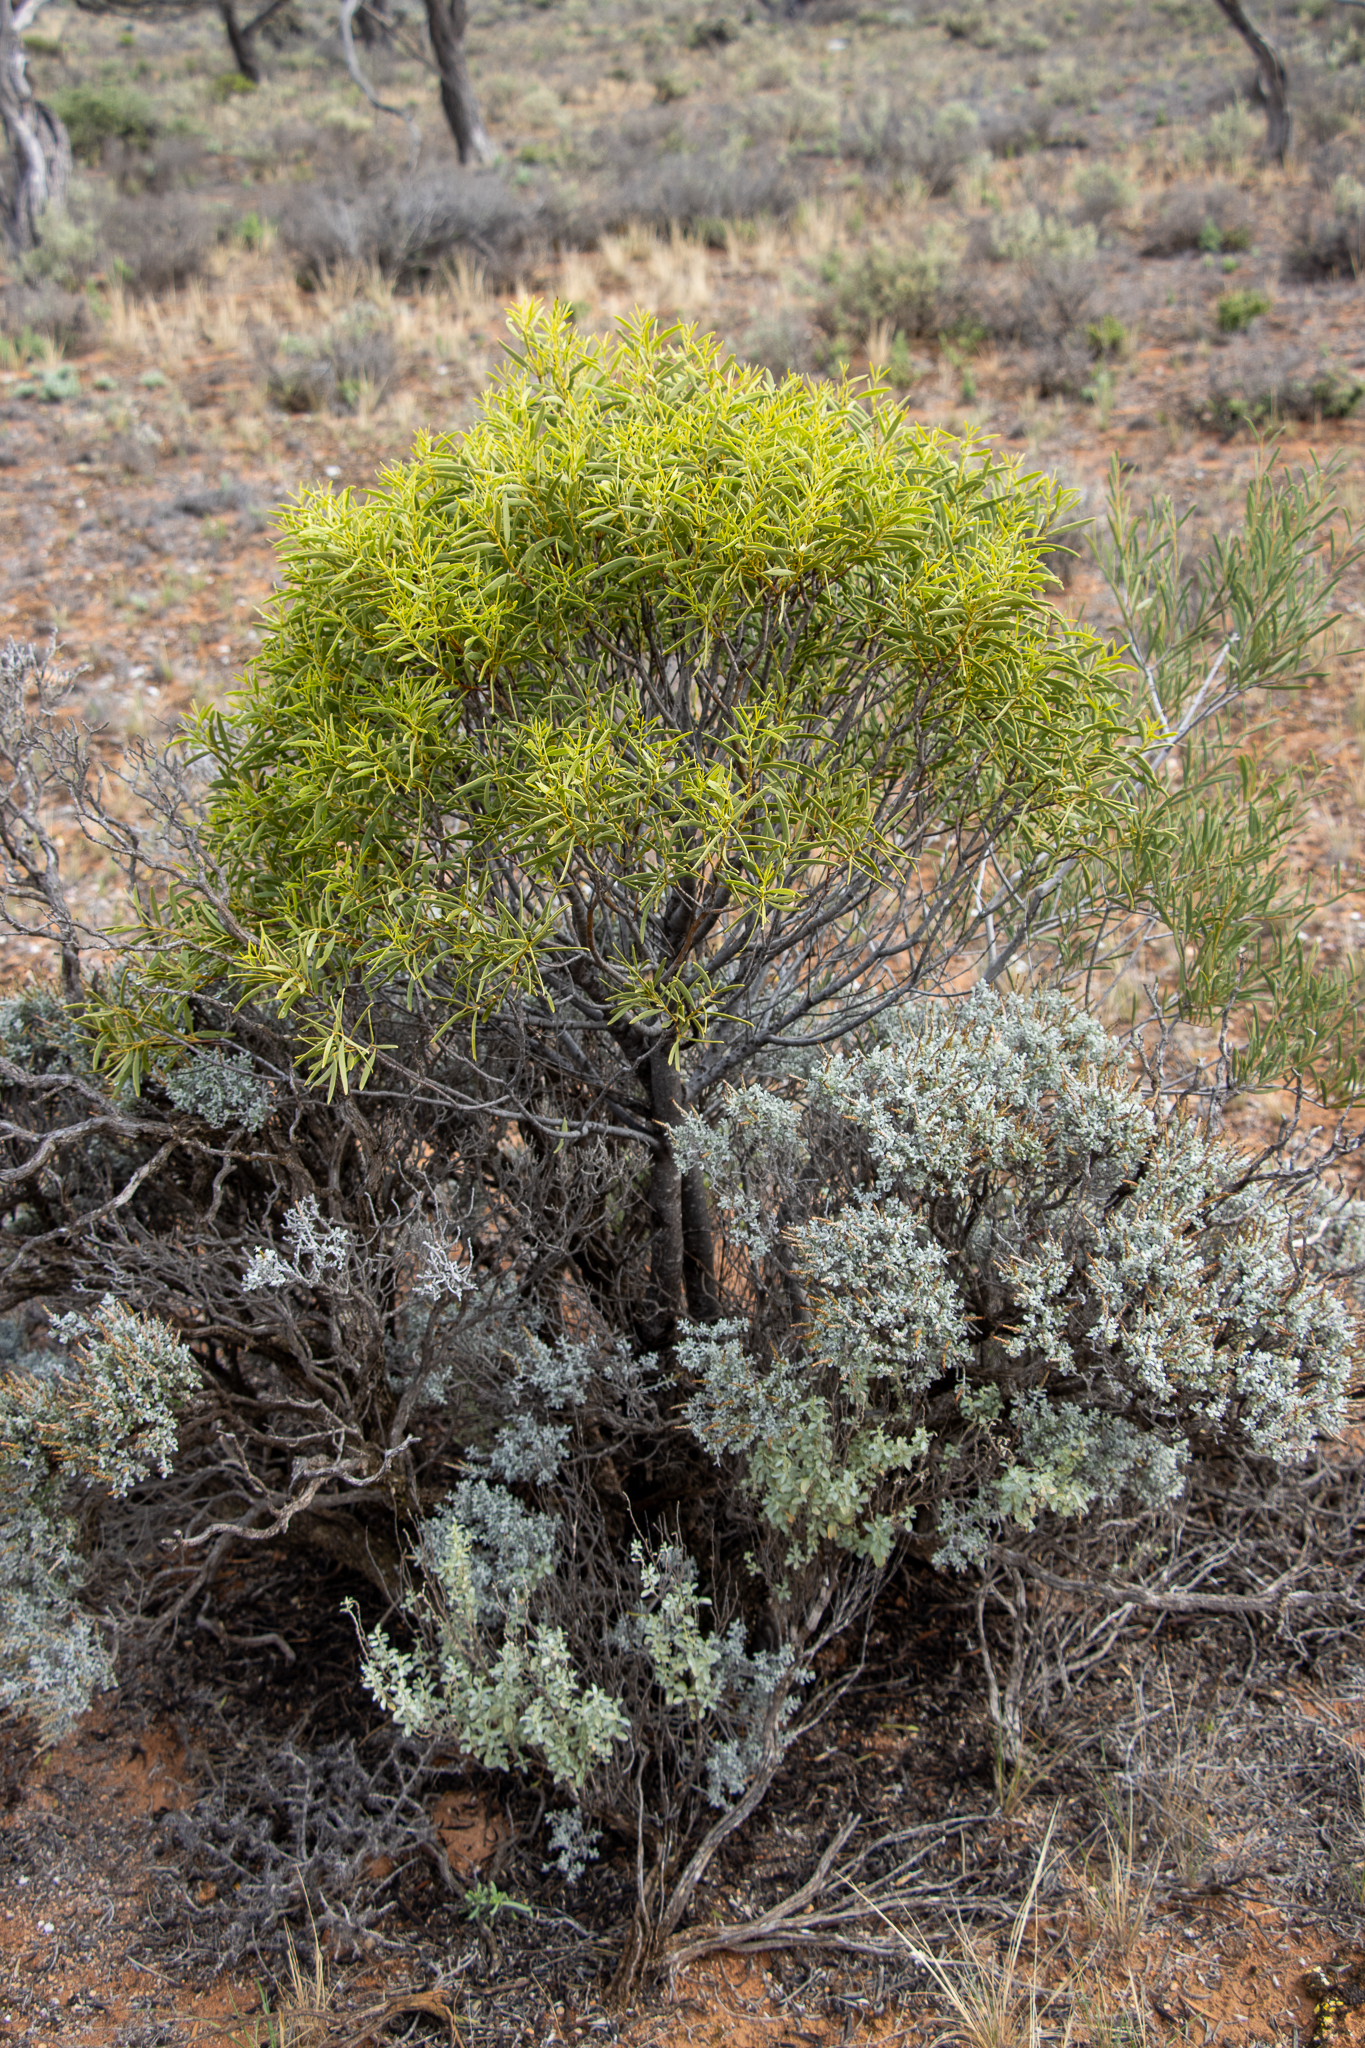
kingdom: Plantae
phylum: Tracheophyta
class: Magnoliopsida
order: Santalales
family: Santalaceae
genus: Santalum
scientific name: Santalum acuminatum
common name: Sweet quandong
